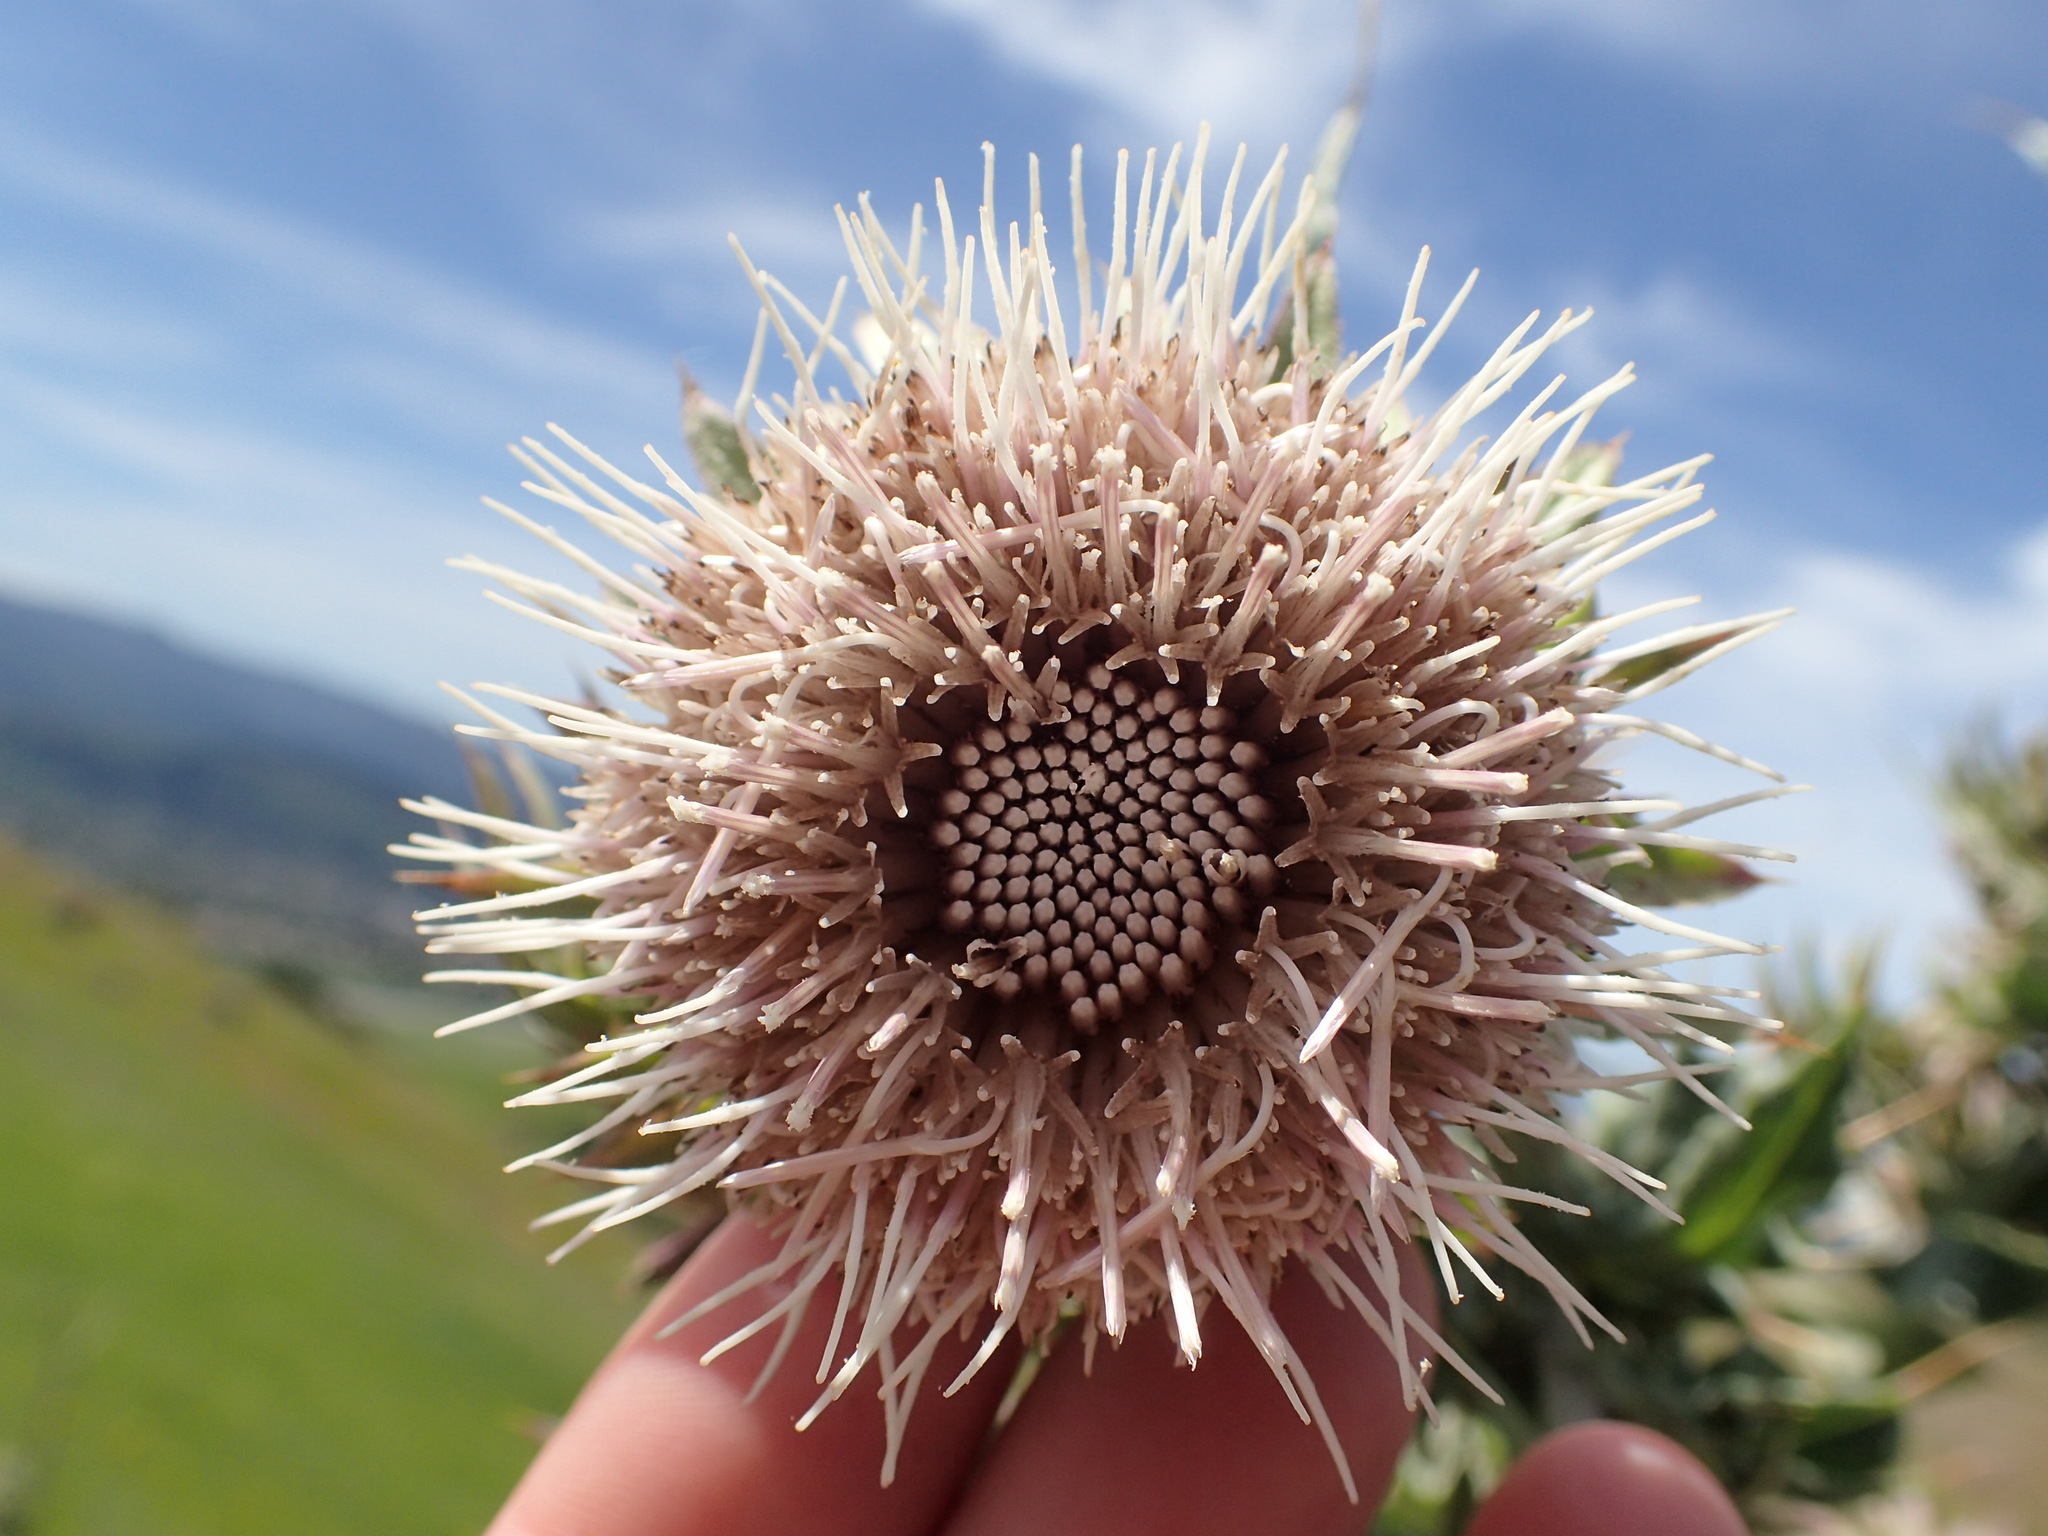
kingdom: Plantae
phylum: Tracheophyta
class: Magnoliopsida
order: Asterales
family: Asteraceae
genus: Cirsium
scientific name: Cirsium fontinale
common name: Fountain thistle
